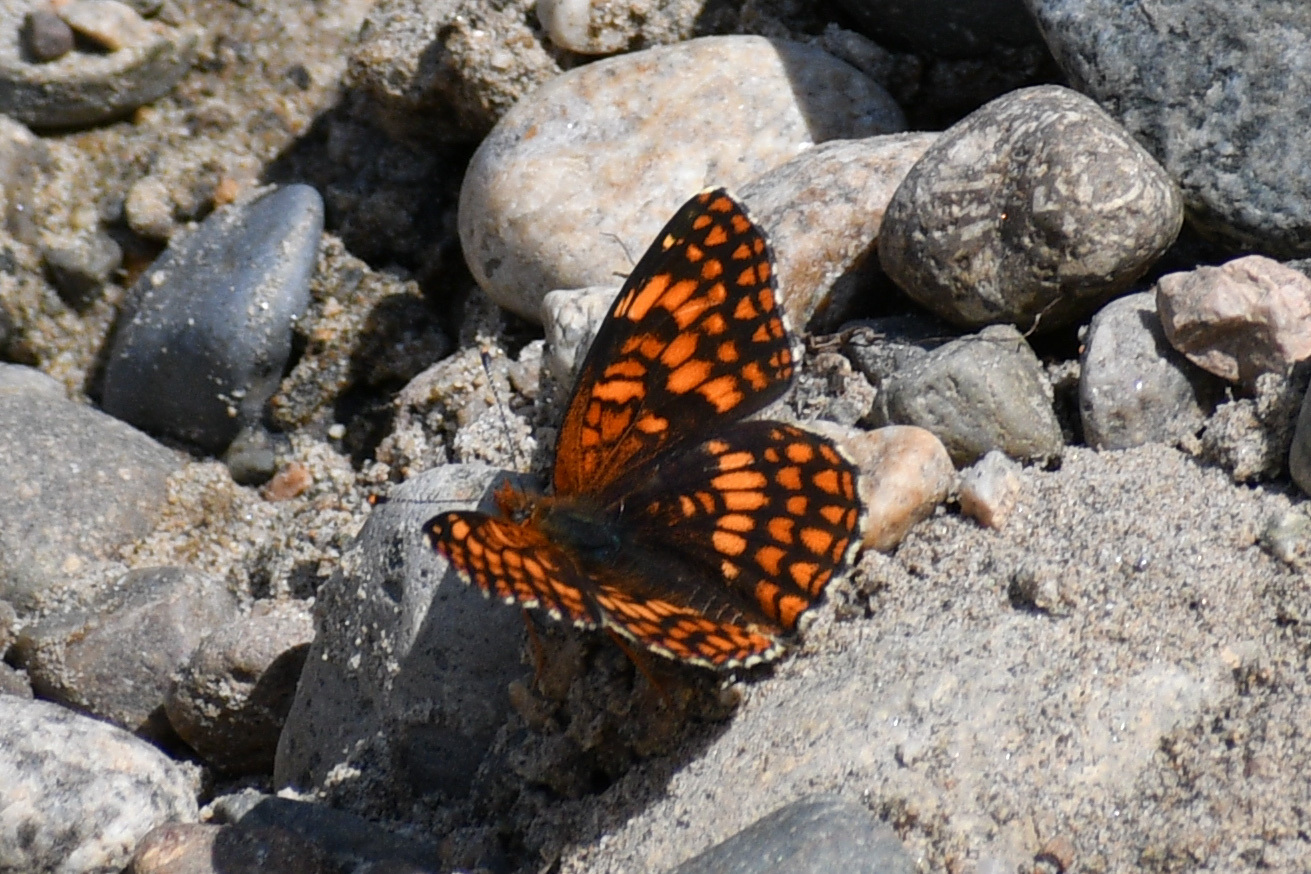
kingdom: Animalia
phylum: Arthropoda
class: Insecta
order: Lepidoptera
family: Nymphalidae
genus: Chlosyne
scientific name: Chlosyne palla
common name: Northern checkerspot
